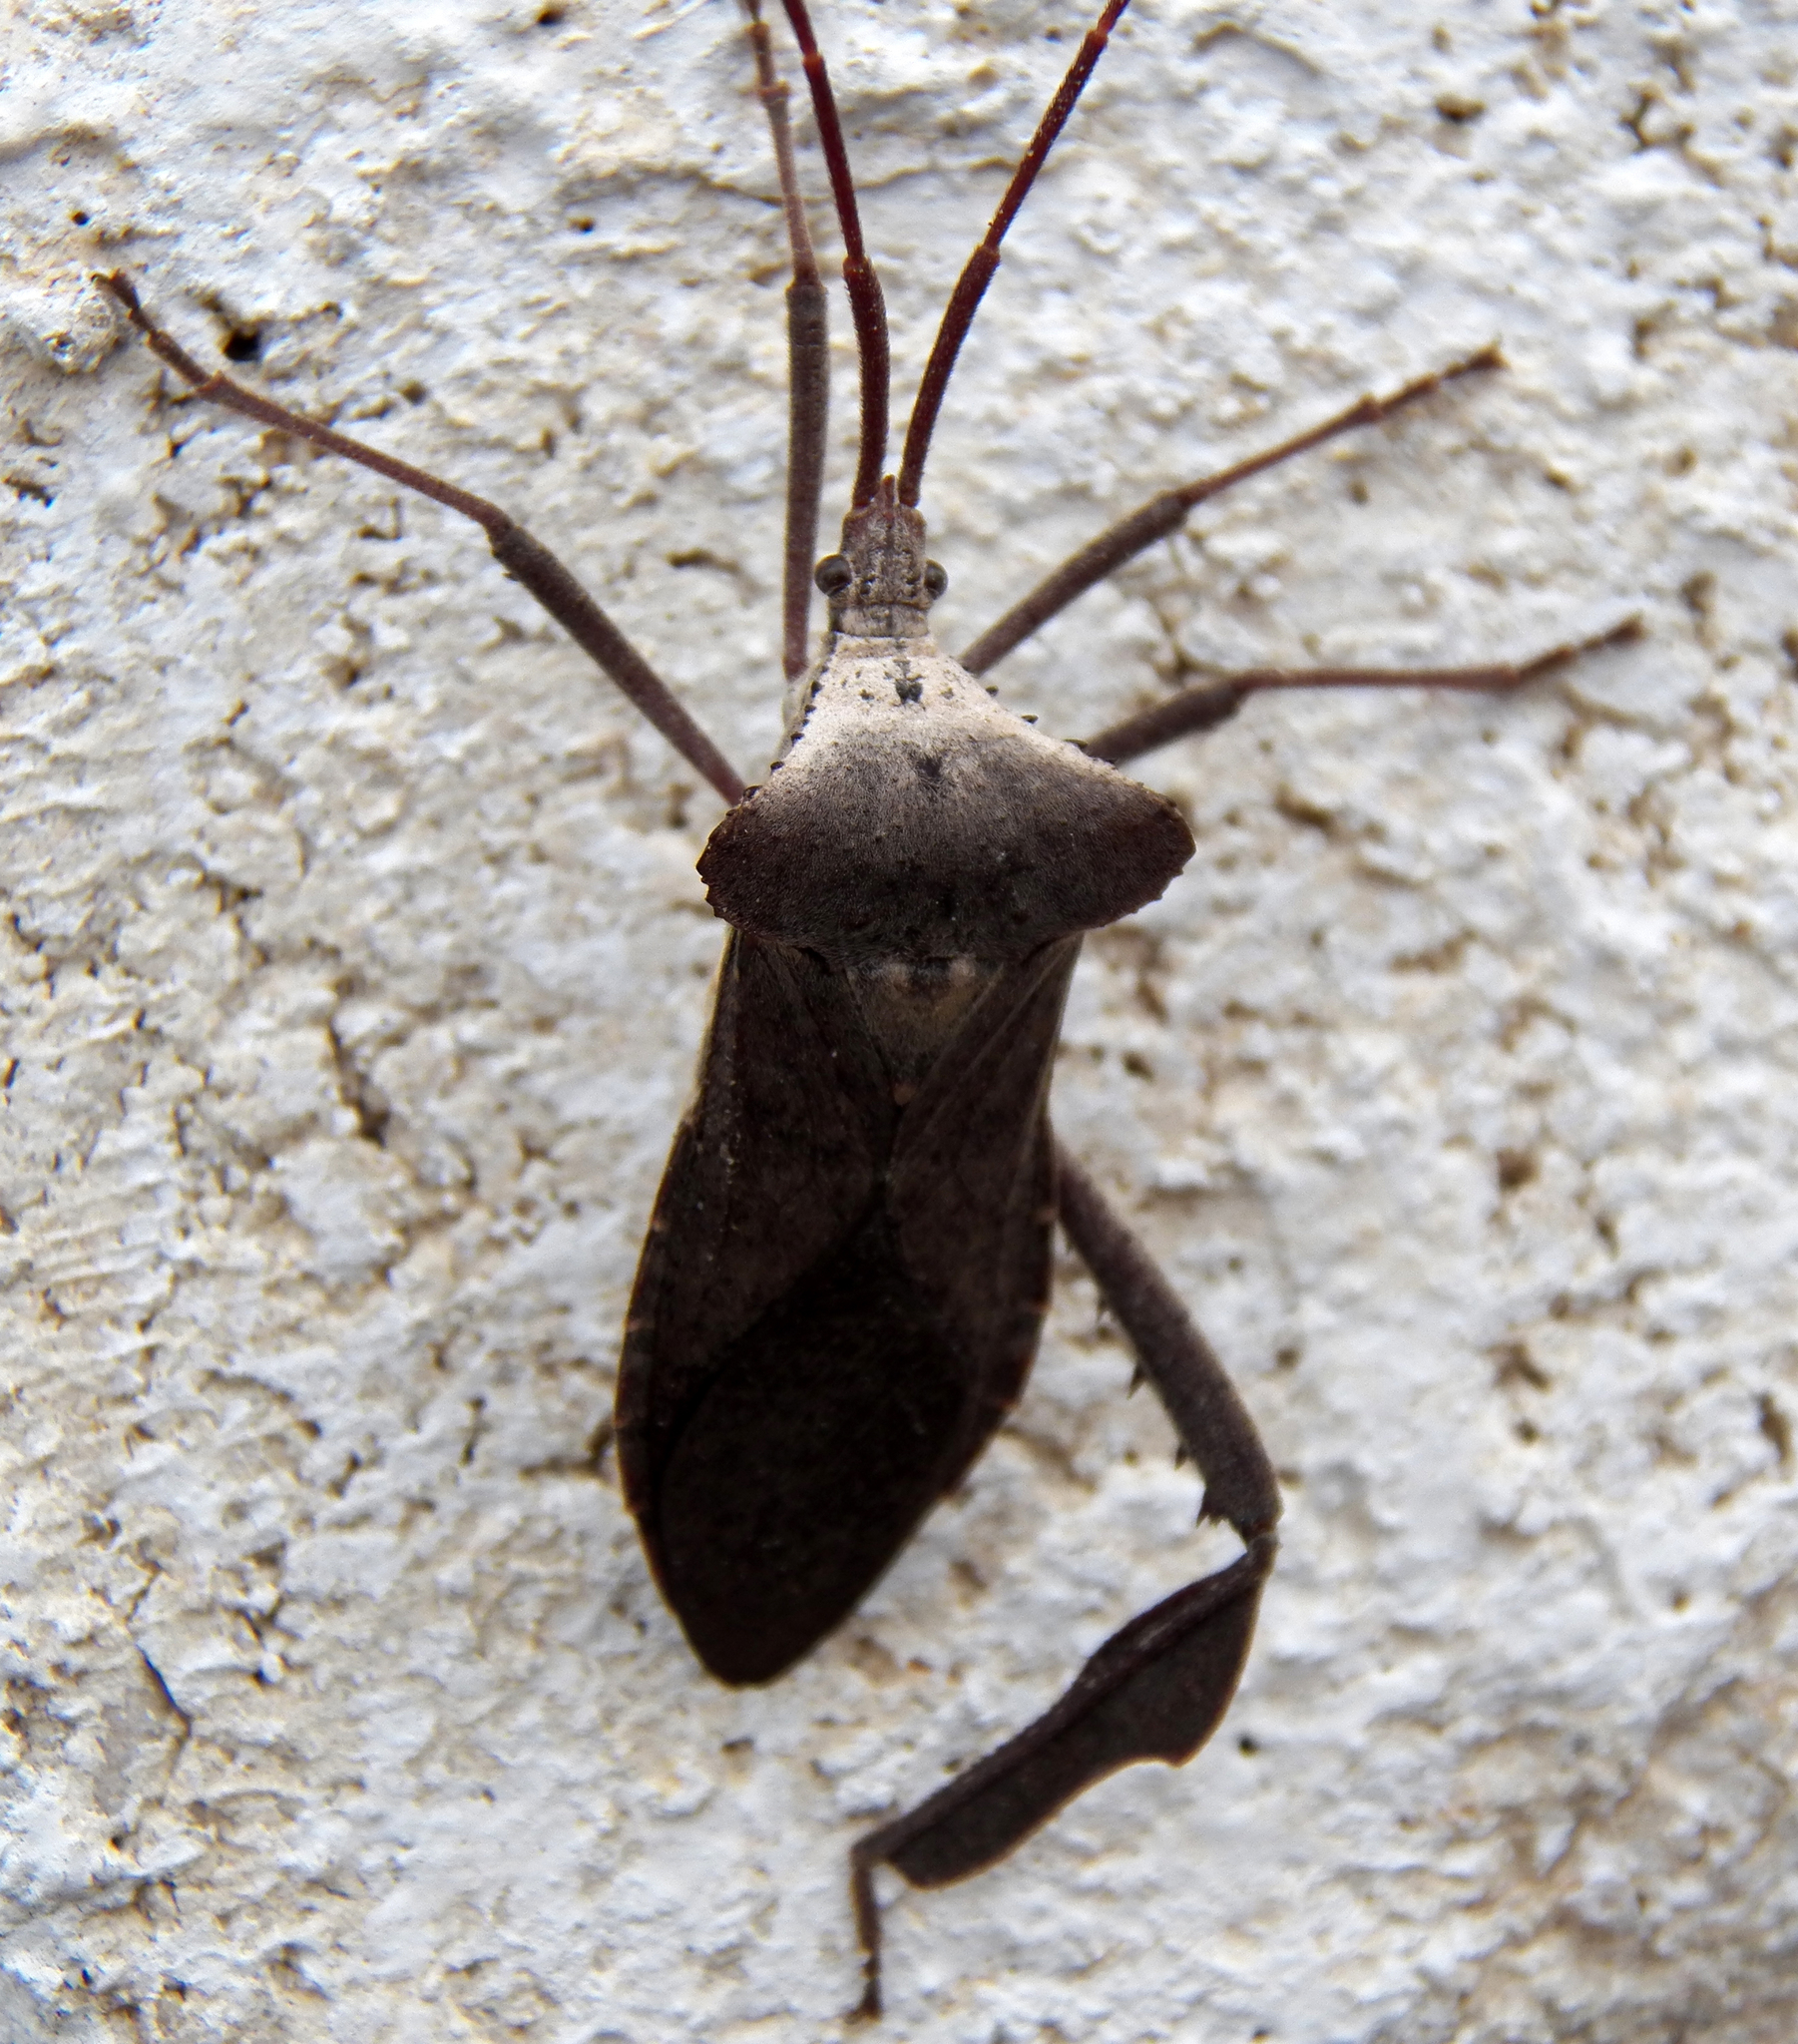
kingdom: Animalia
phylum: Arthropoda
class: Insecta
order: Hemiptera
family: Coreidae
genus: Acanthocephala
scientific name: Acanthocephala declivis
